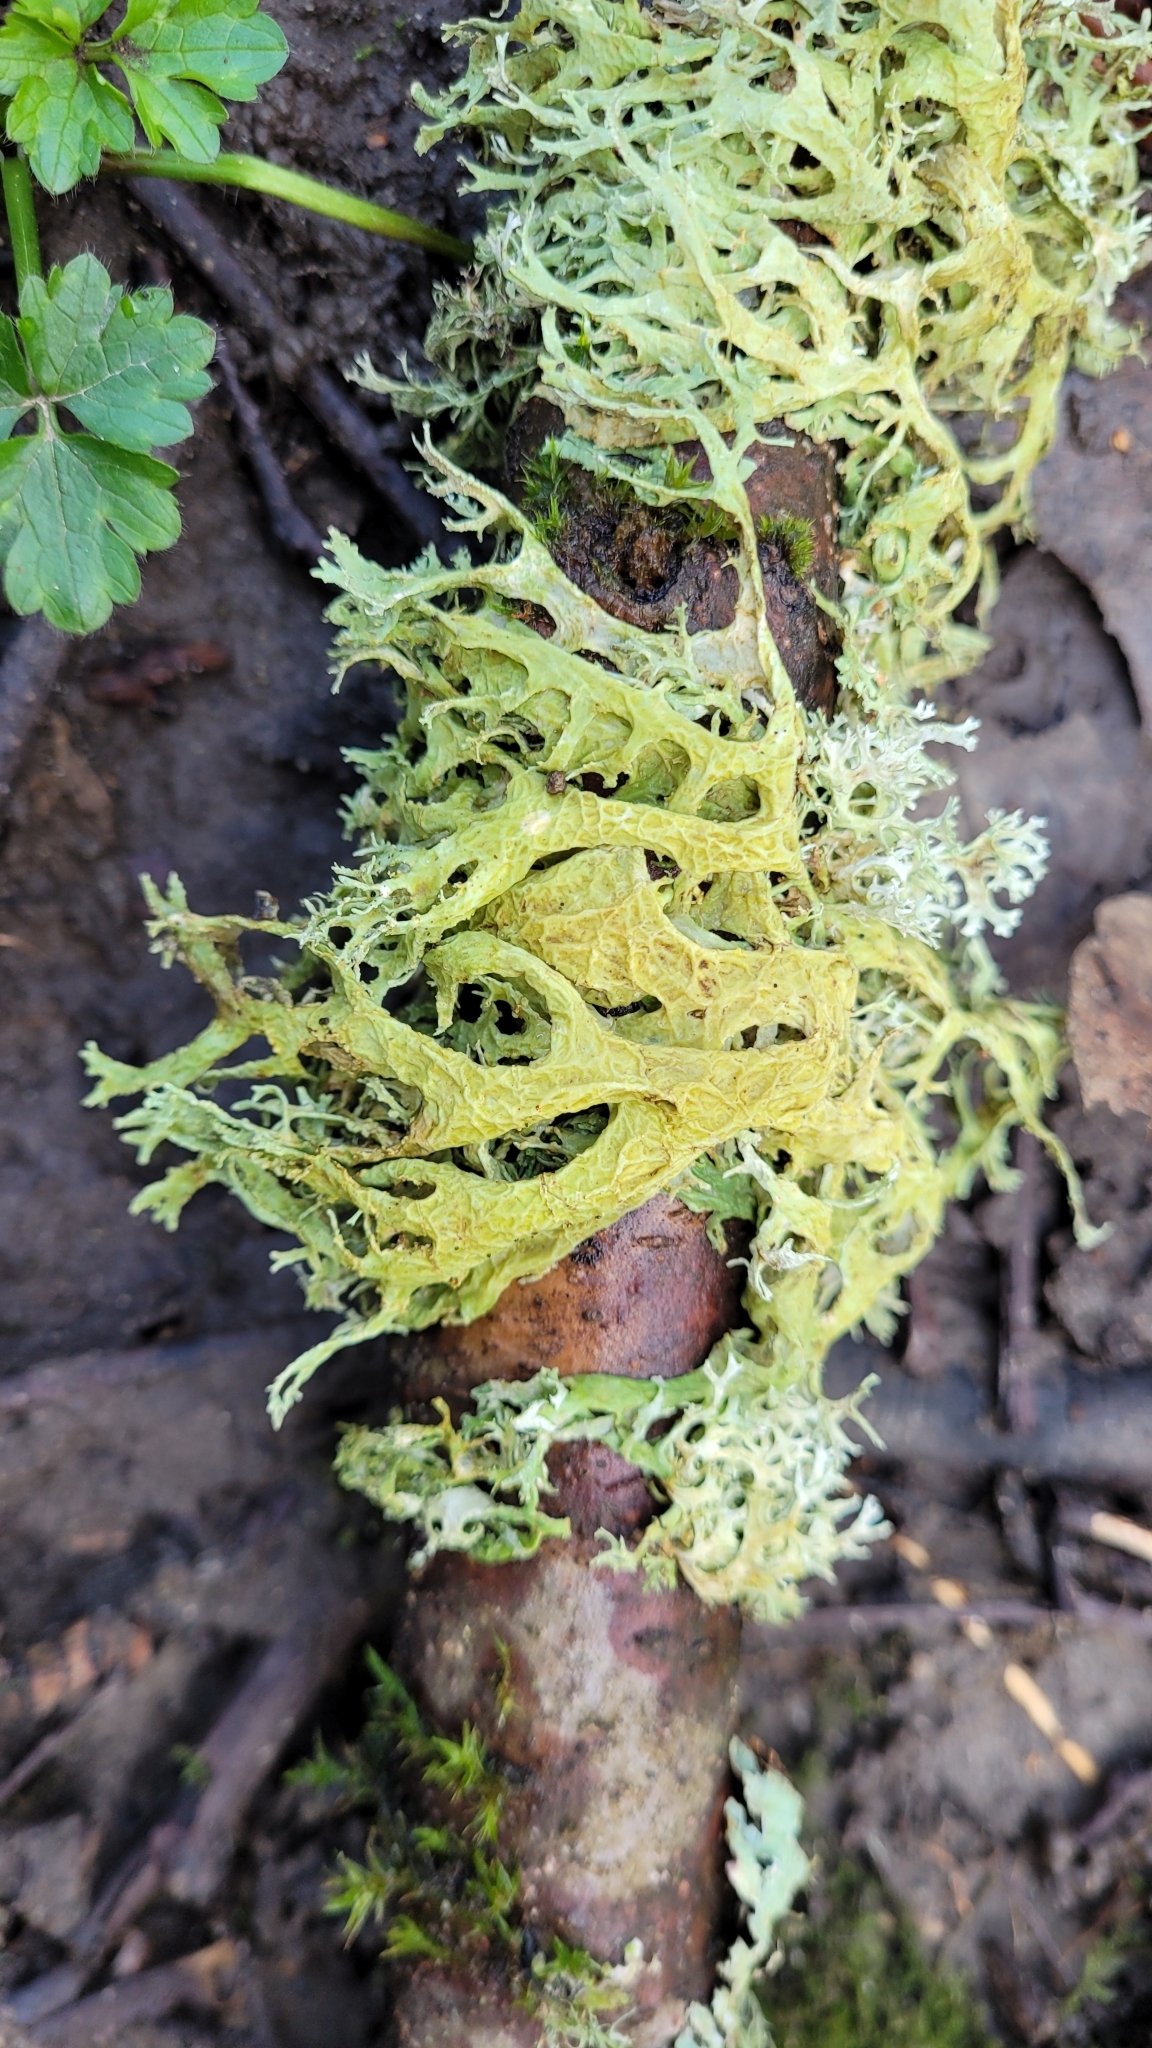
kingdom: Fungi
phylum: Ascomycota
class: Lecanoromycetes
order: Lecanorales
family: Parmeliaceae
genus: Evernia
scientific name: Evernia prunastri
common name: Oak moss
